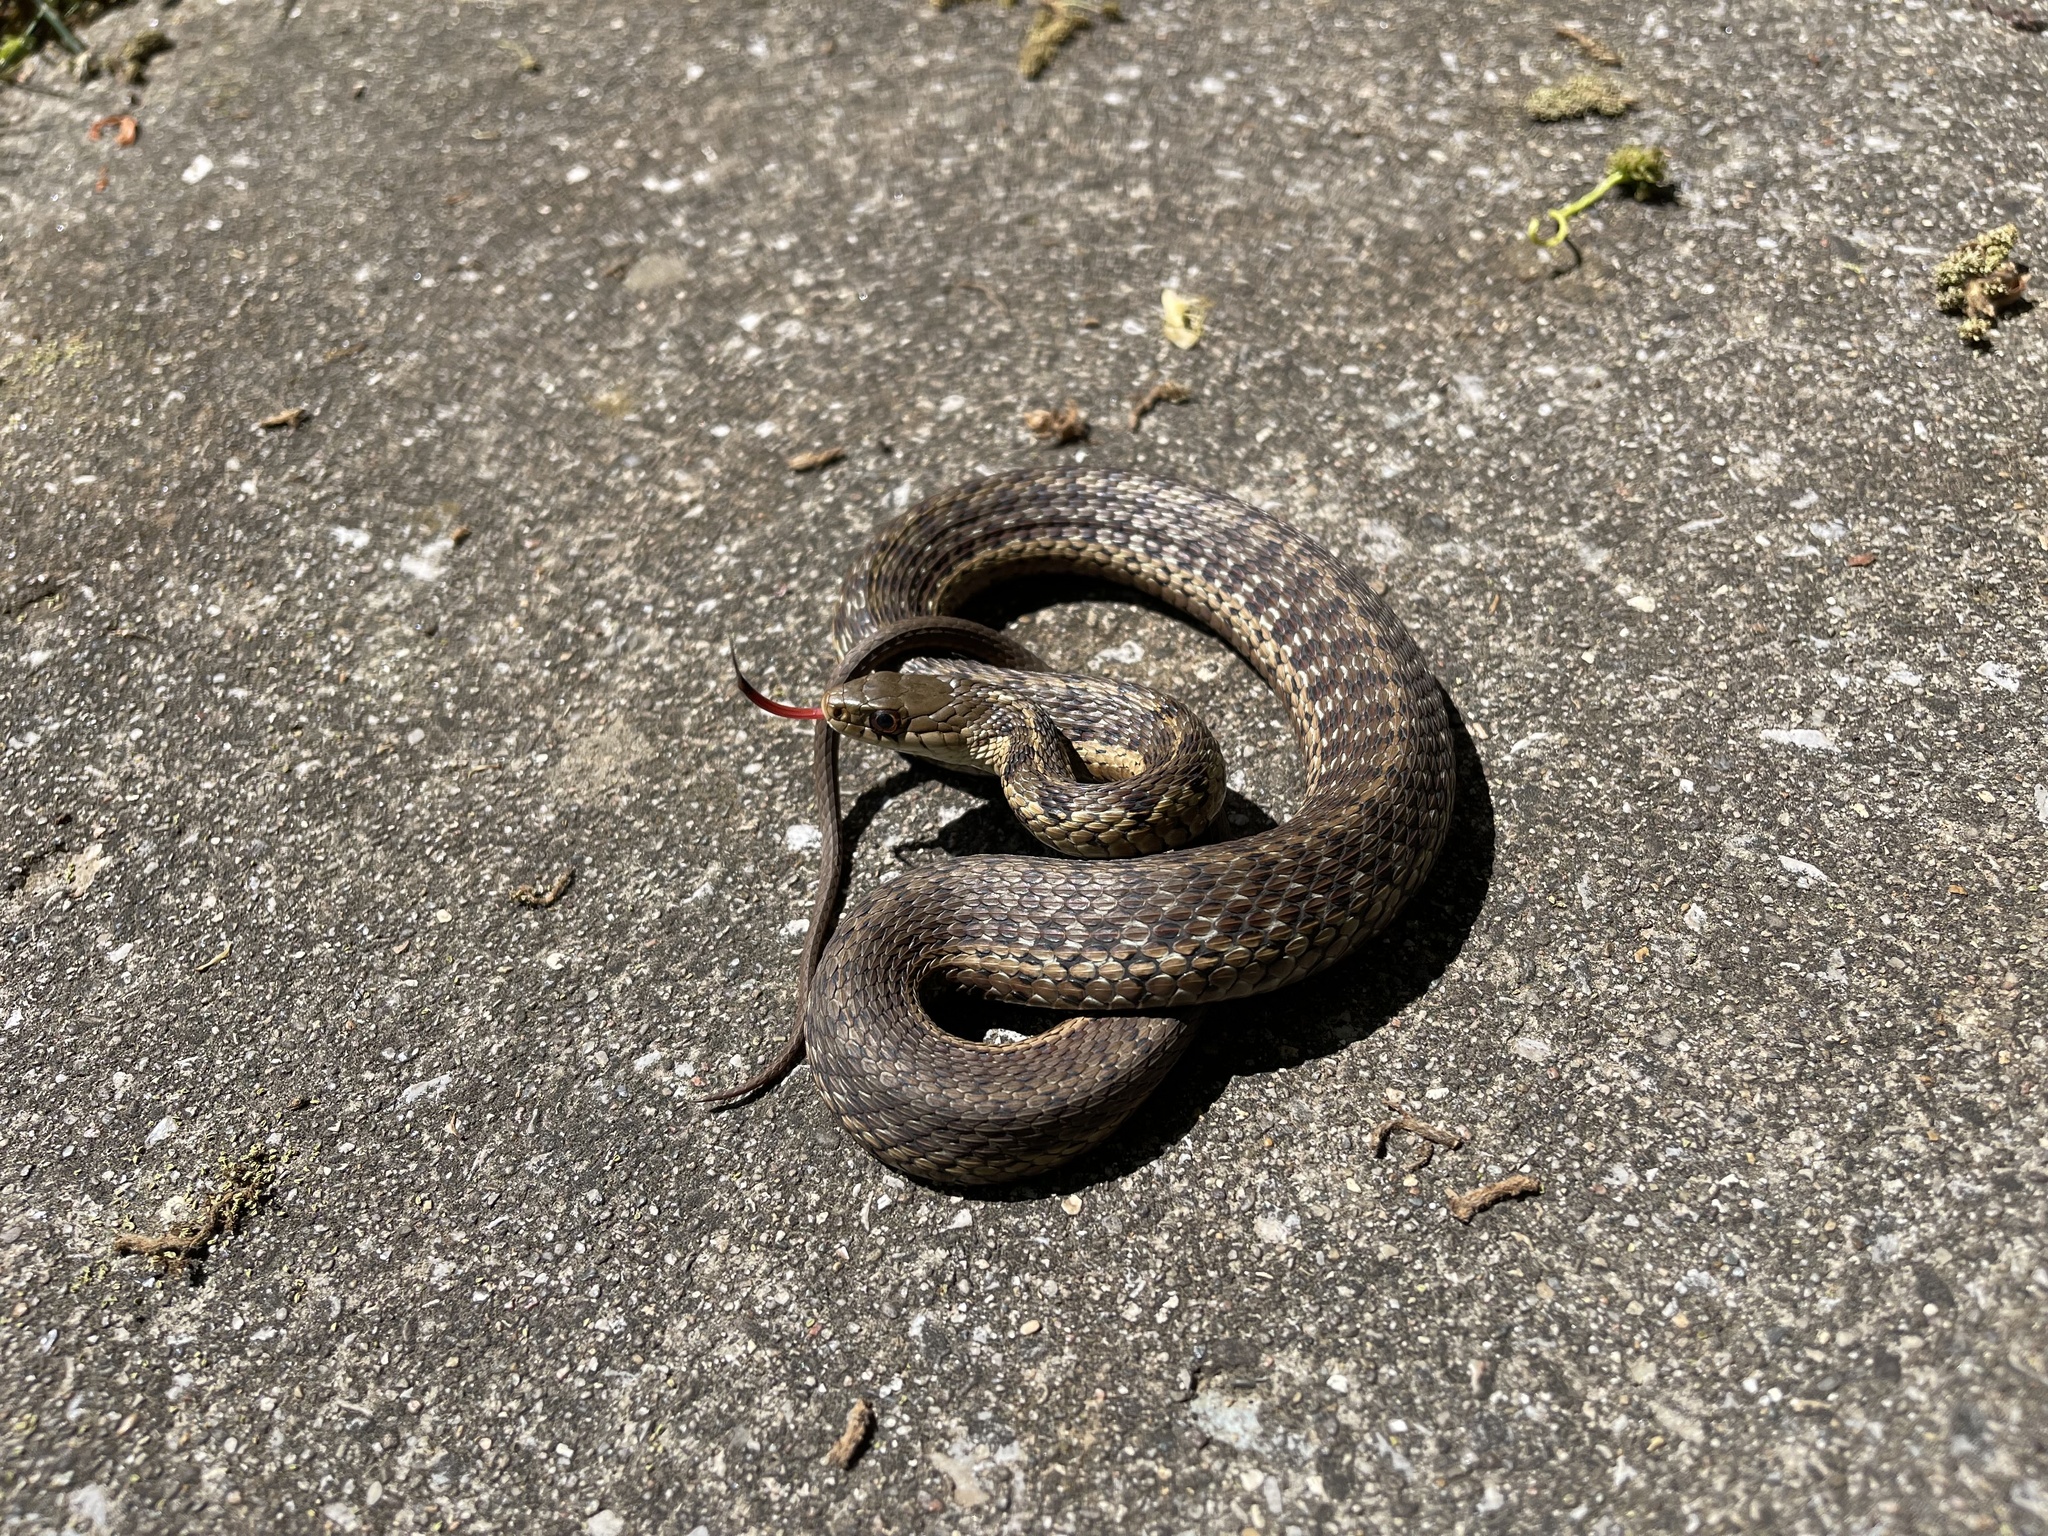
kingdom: Animalia
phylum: Chordata
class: Squamata
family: Colubridae
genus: Thamnophis
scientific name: Thamnophis sirtalis
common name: Common garter snake
